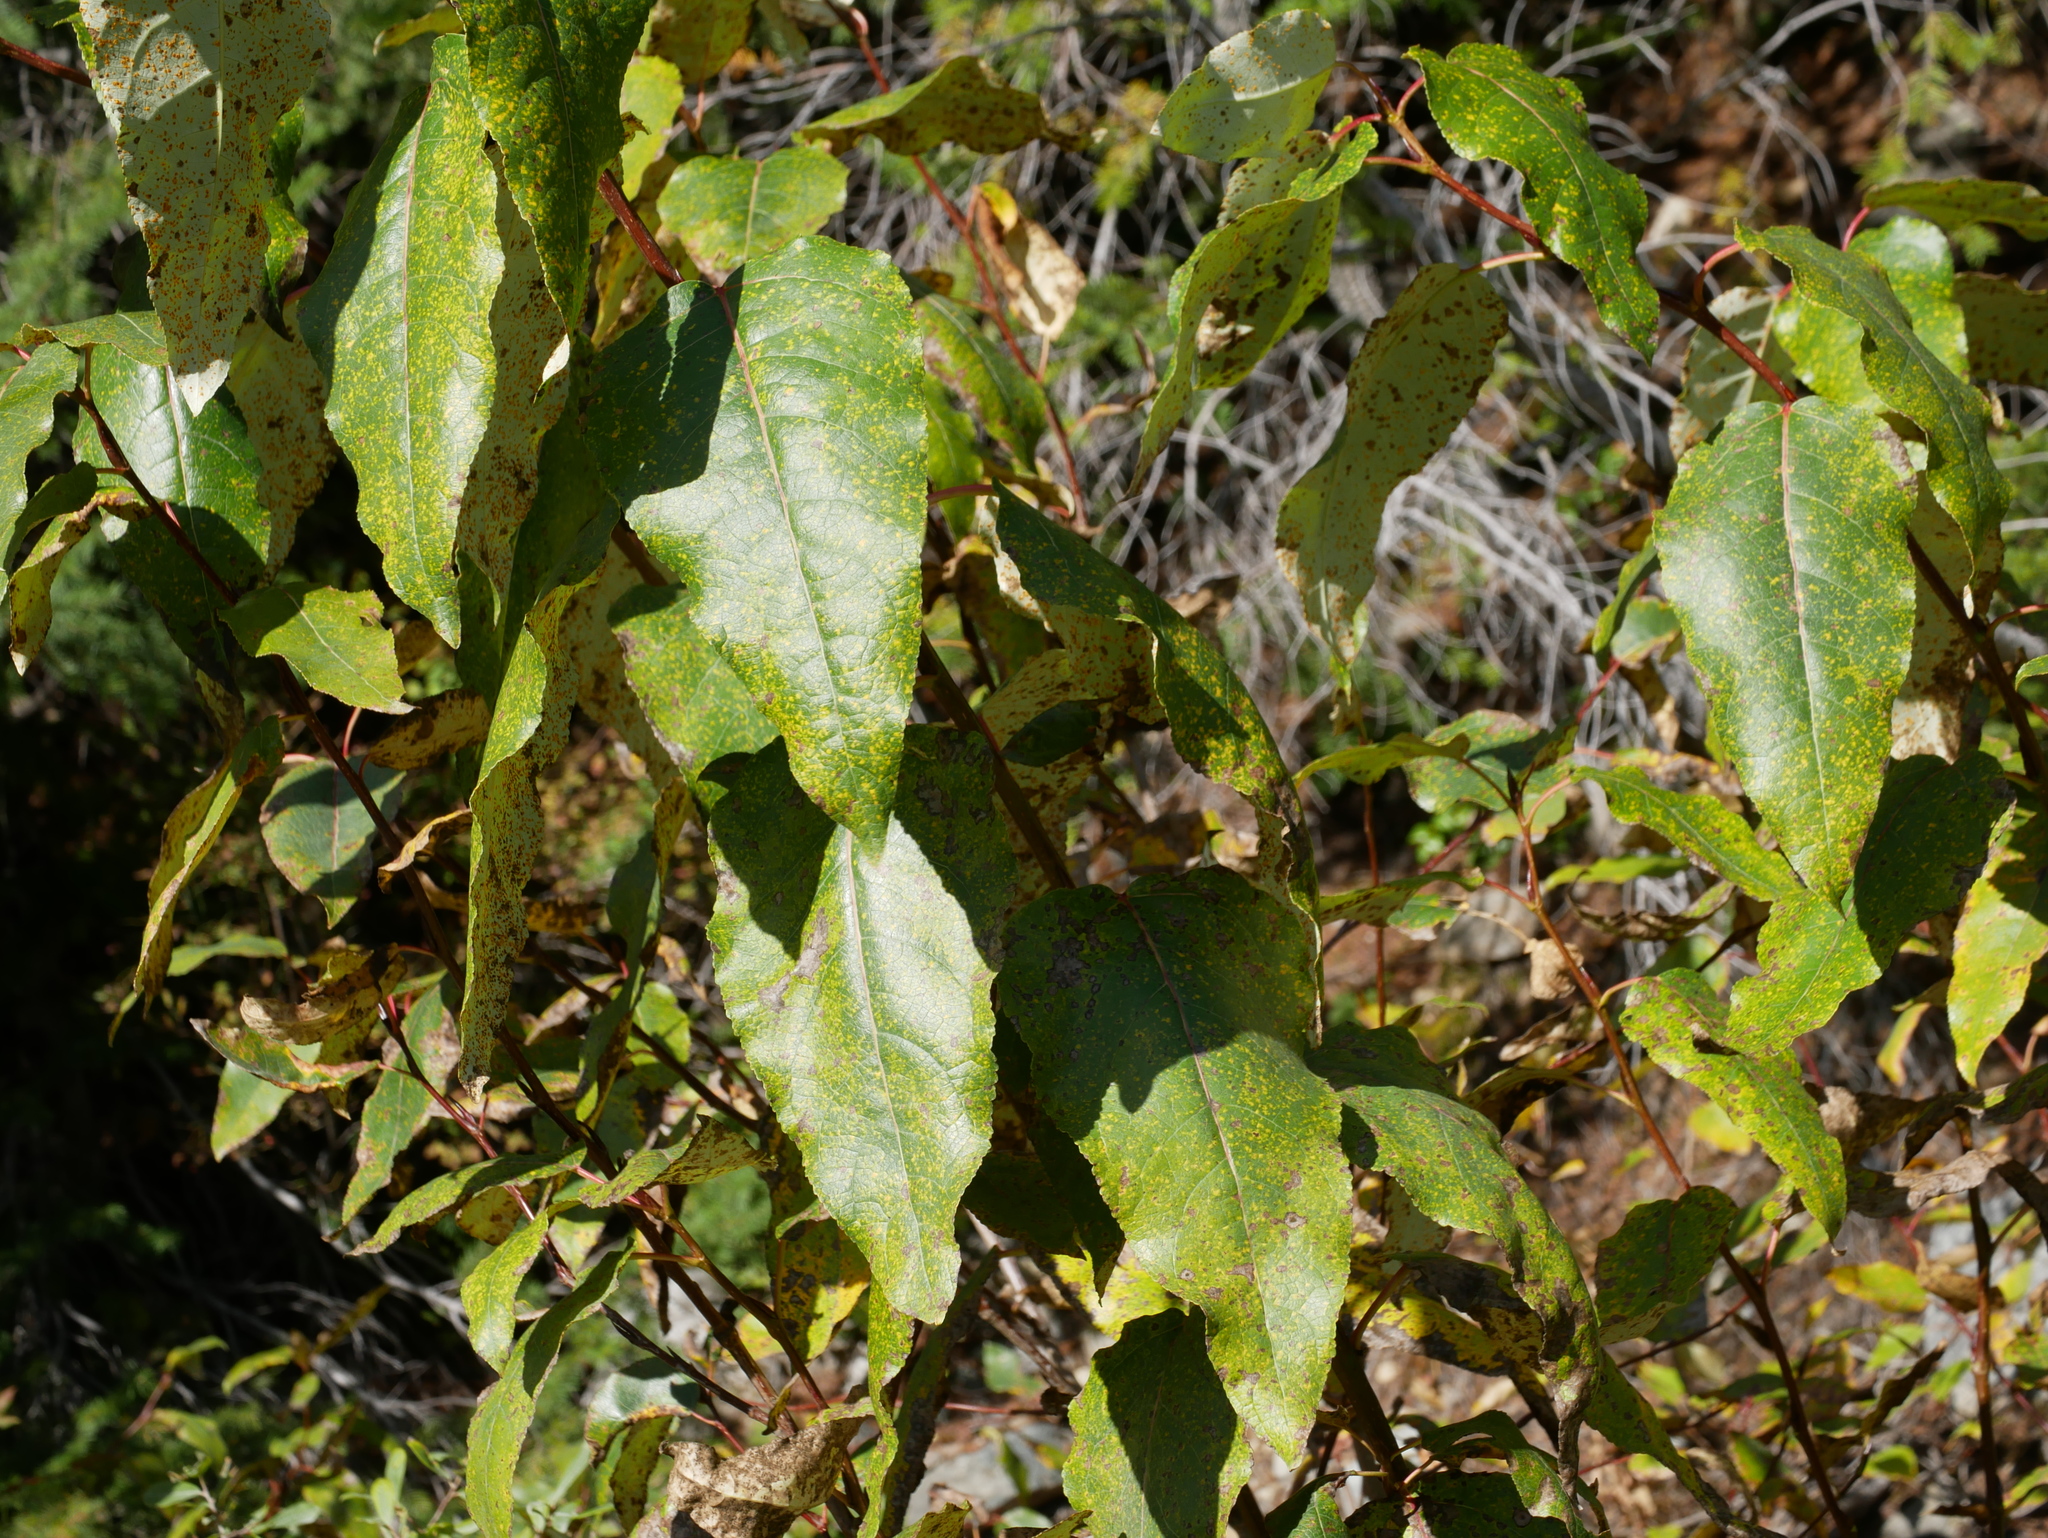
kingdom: Plantae
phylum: Tracheophyta
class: Magnoliopsida
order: Malpighiales
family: Salicaceae
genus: Populus
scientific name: Populus trichocarpa
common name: Black cottonwood
